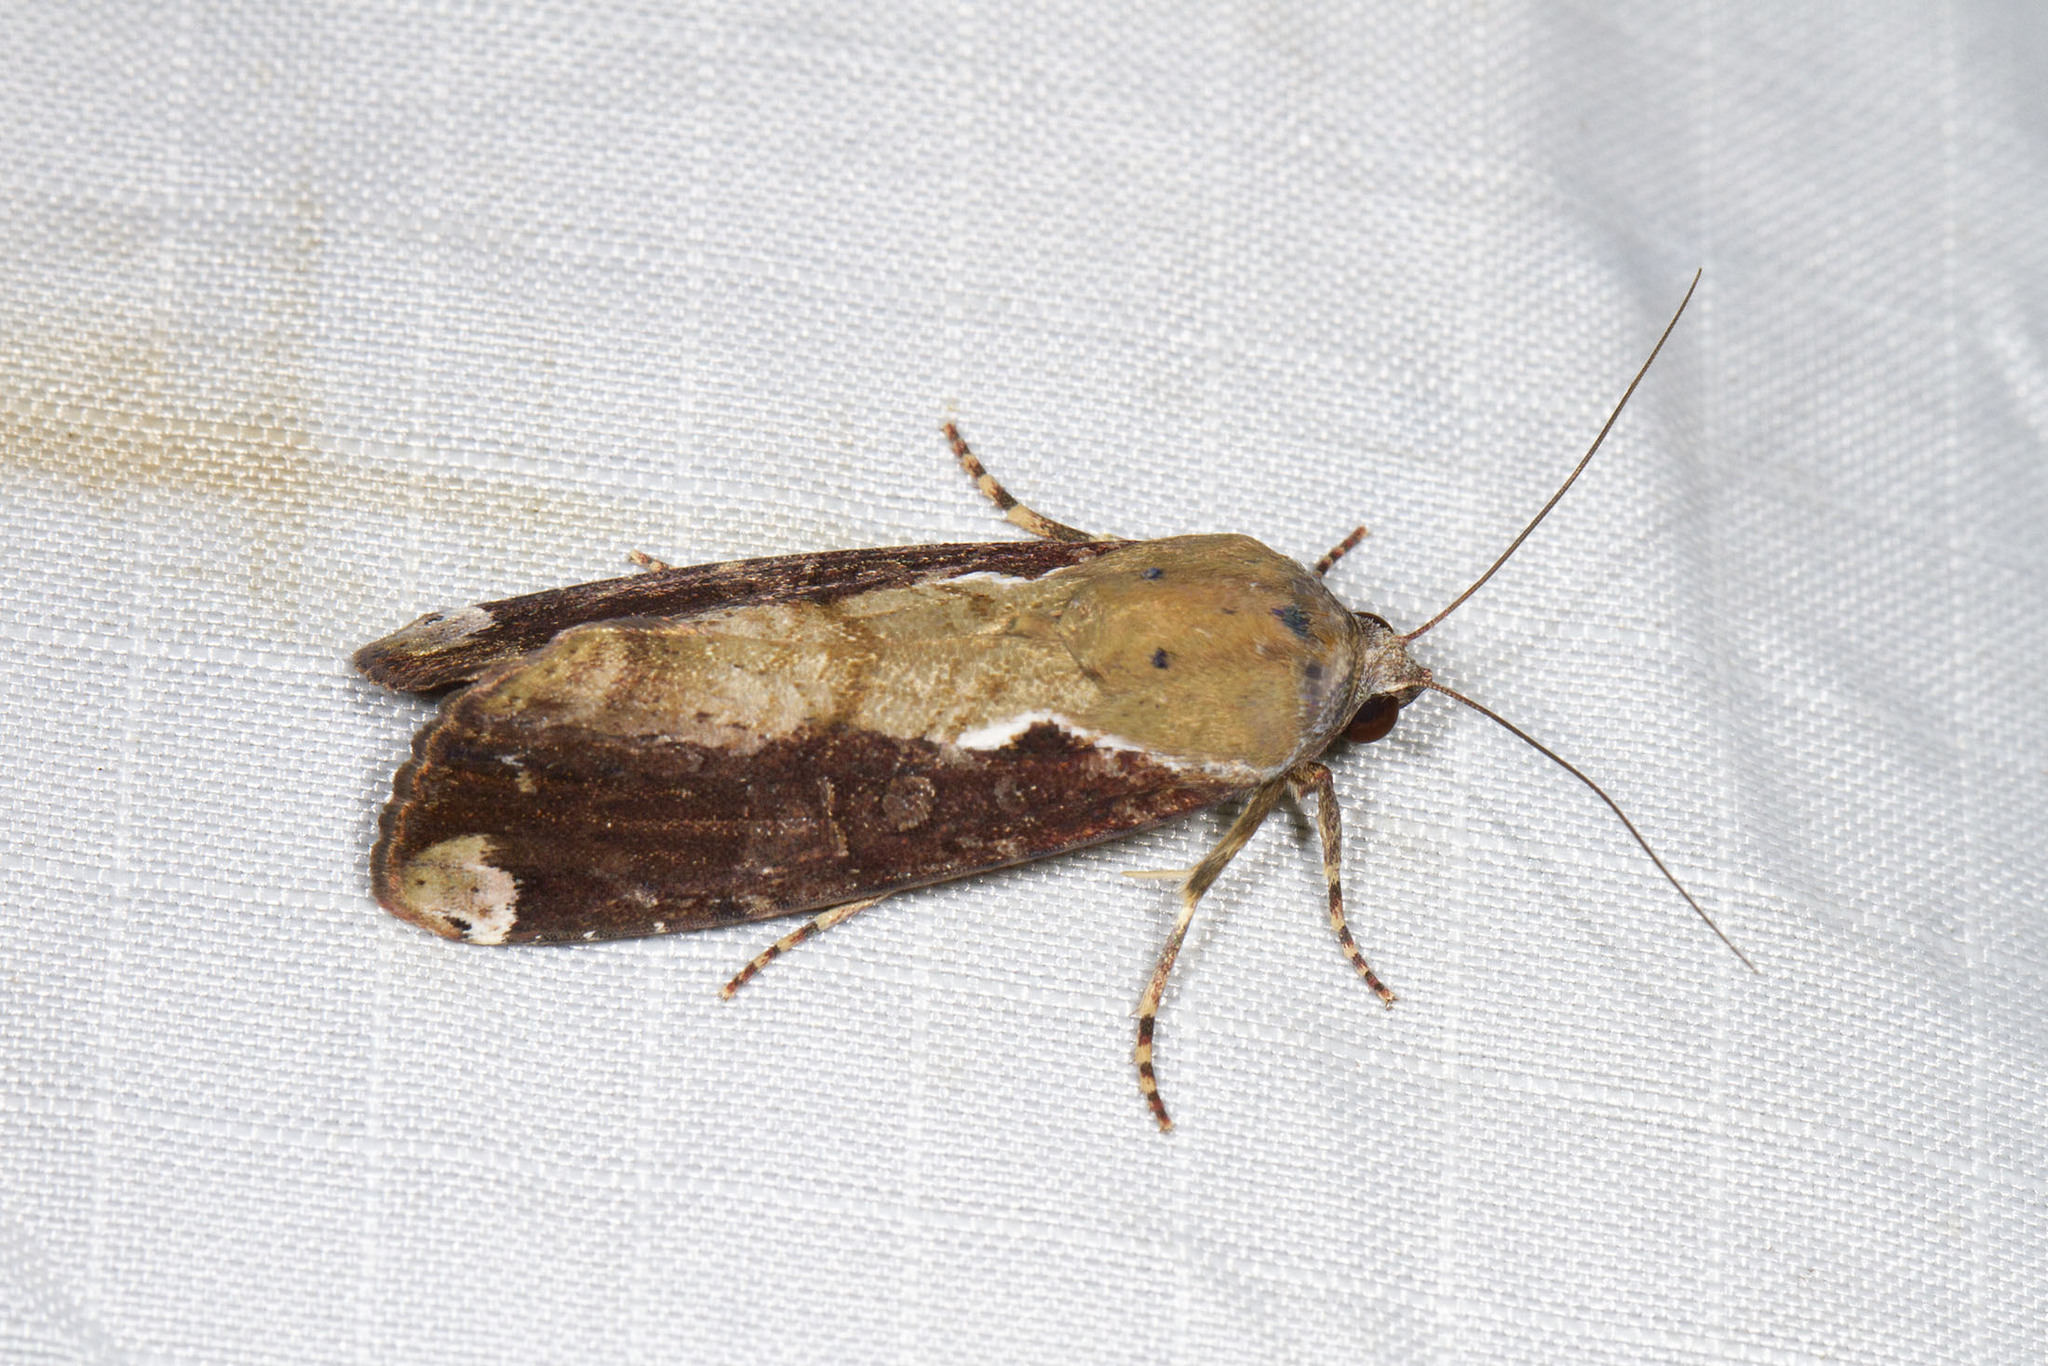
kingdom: Animalia
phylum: Arthropoda
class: Insecta
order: Lepidoptera
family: Noctuidae
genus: Magusa
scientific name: Magusa divaricata
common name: Orb narrow-winged moth
